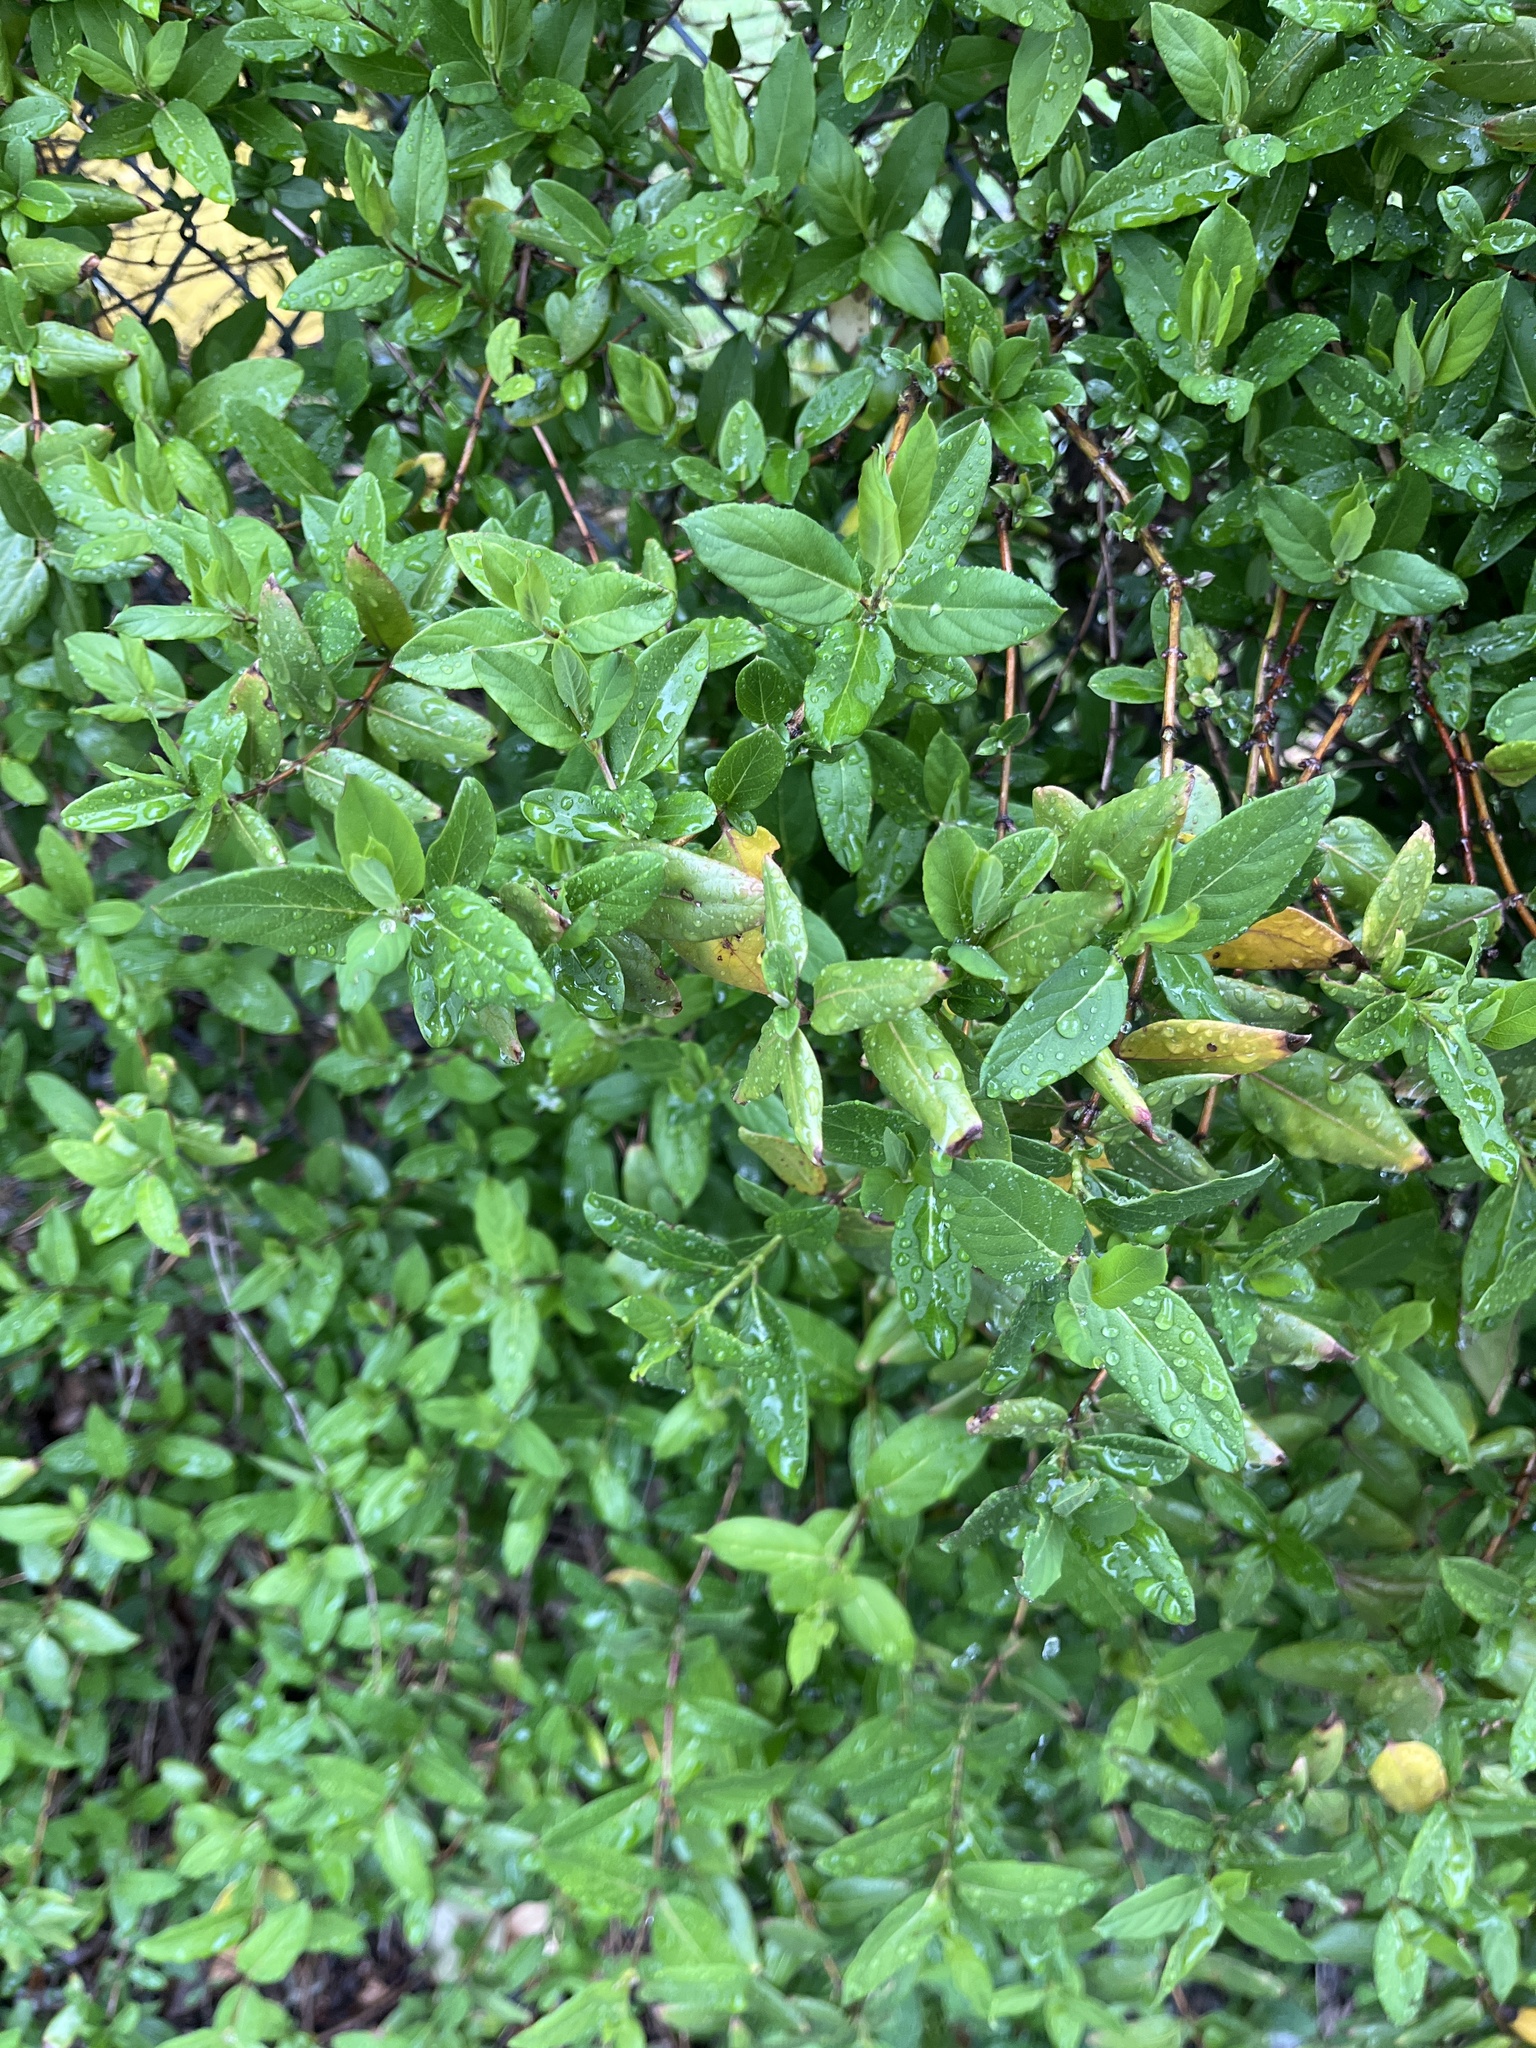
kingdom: Plantae
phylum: Tracheophyta
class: Magnoliopsida
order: Dipsacales
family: Caprifoliaceae
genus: Lonicera
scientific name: Lonicera japonica
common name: Japanese honeysuckle
